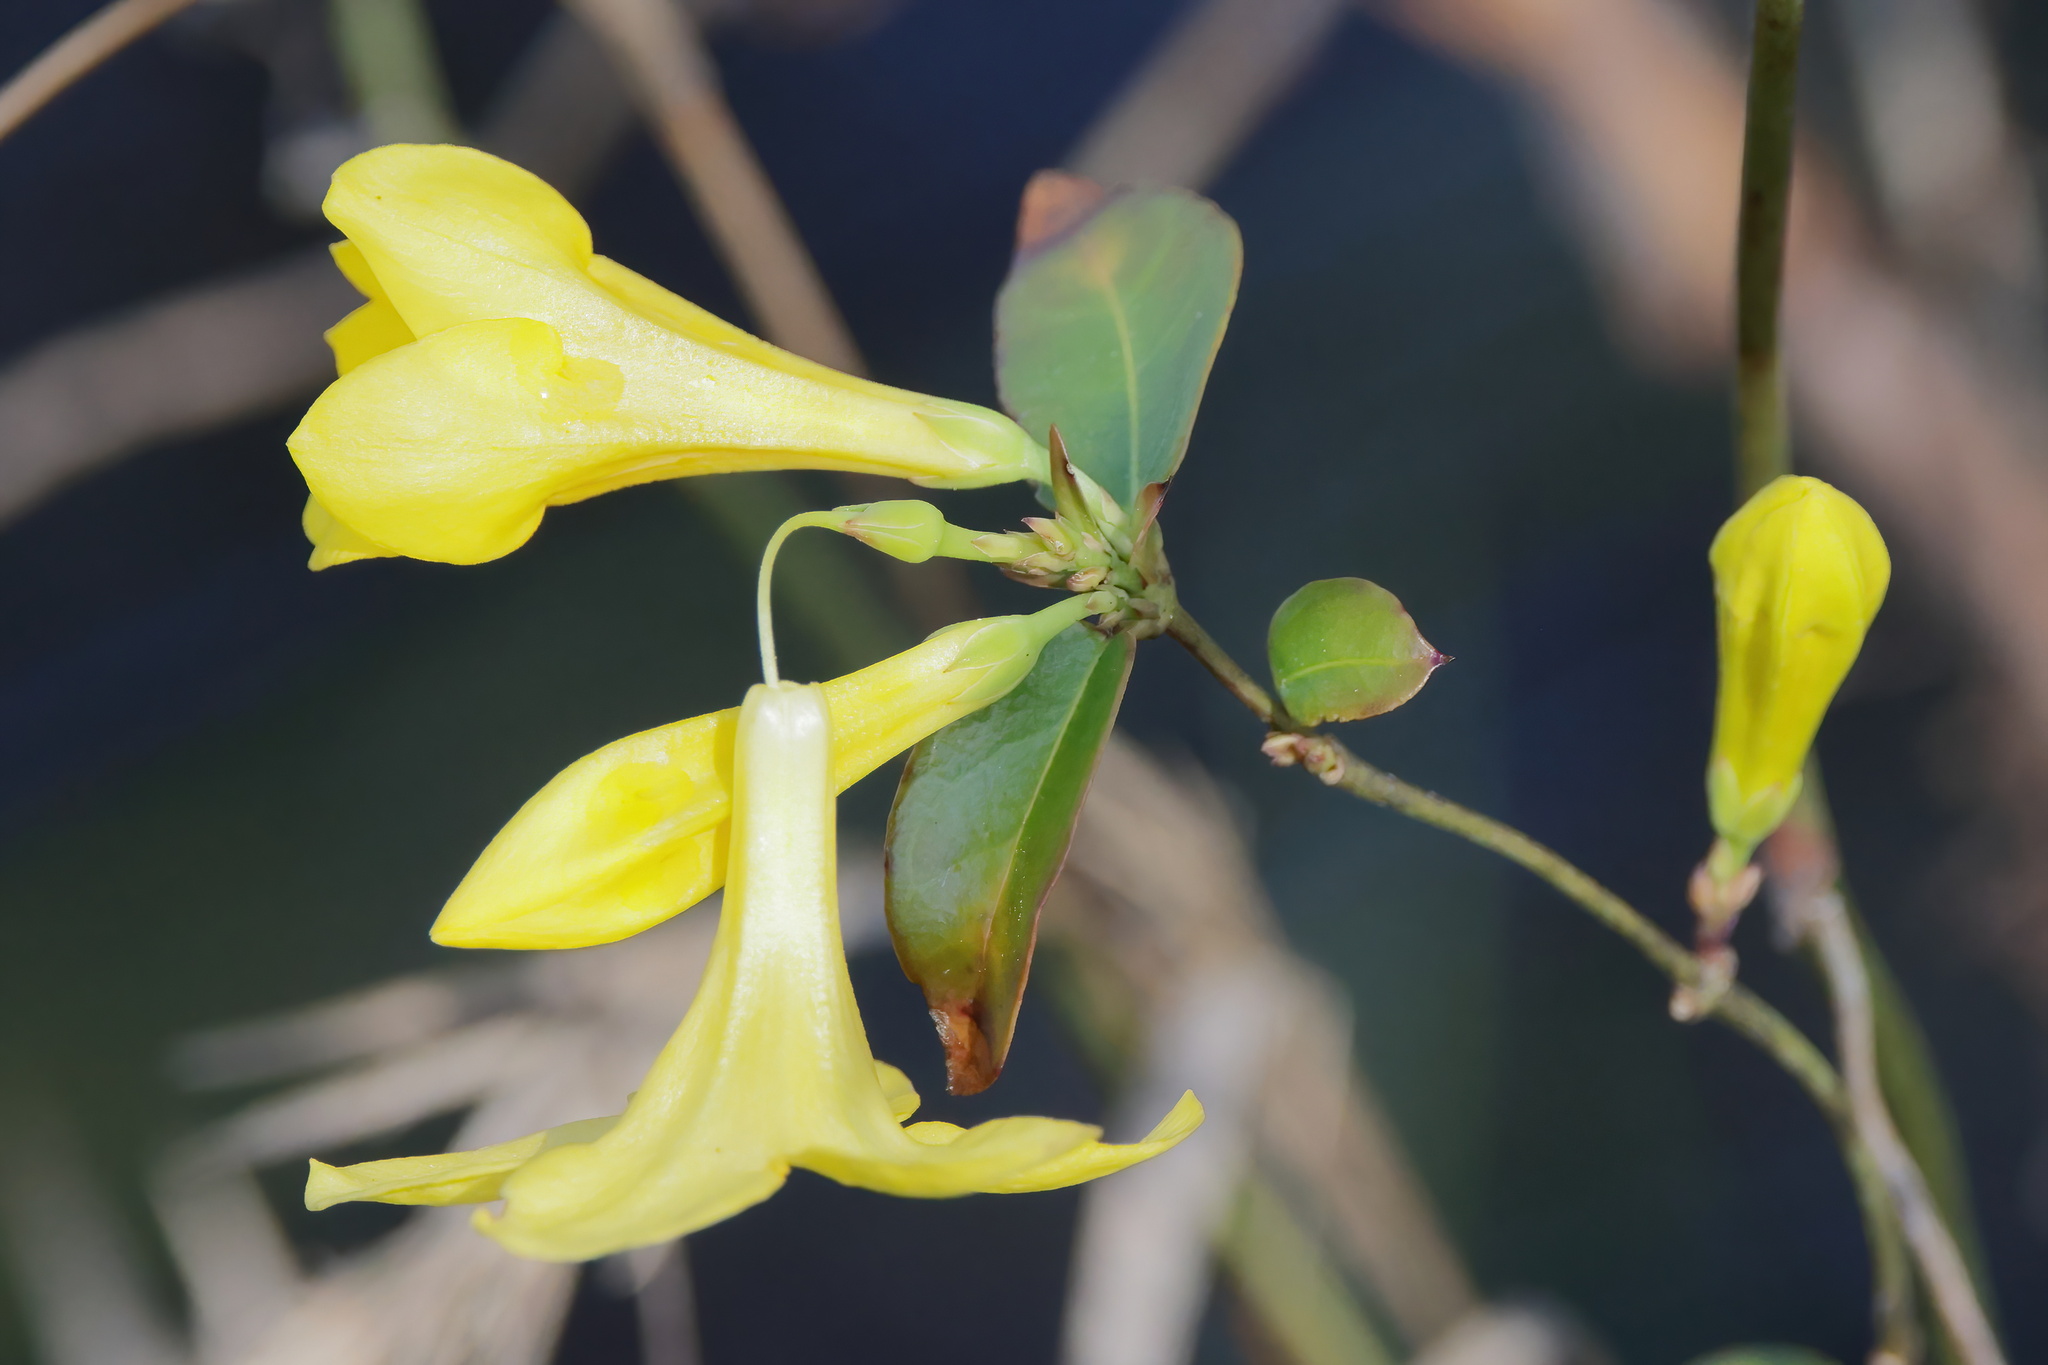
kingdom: Plantae
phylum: Tracheophyta
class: Magnoliopsida
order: Gentianales
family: Gelsemiaceae
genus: Gelsemium
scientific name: Gelsemium rankinii
